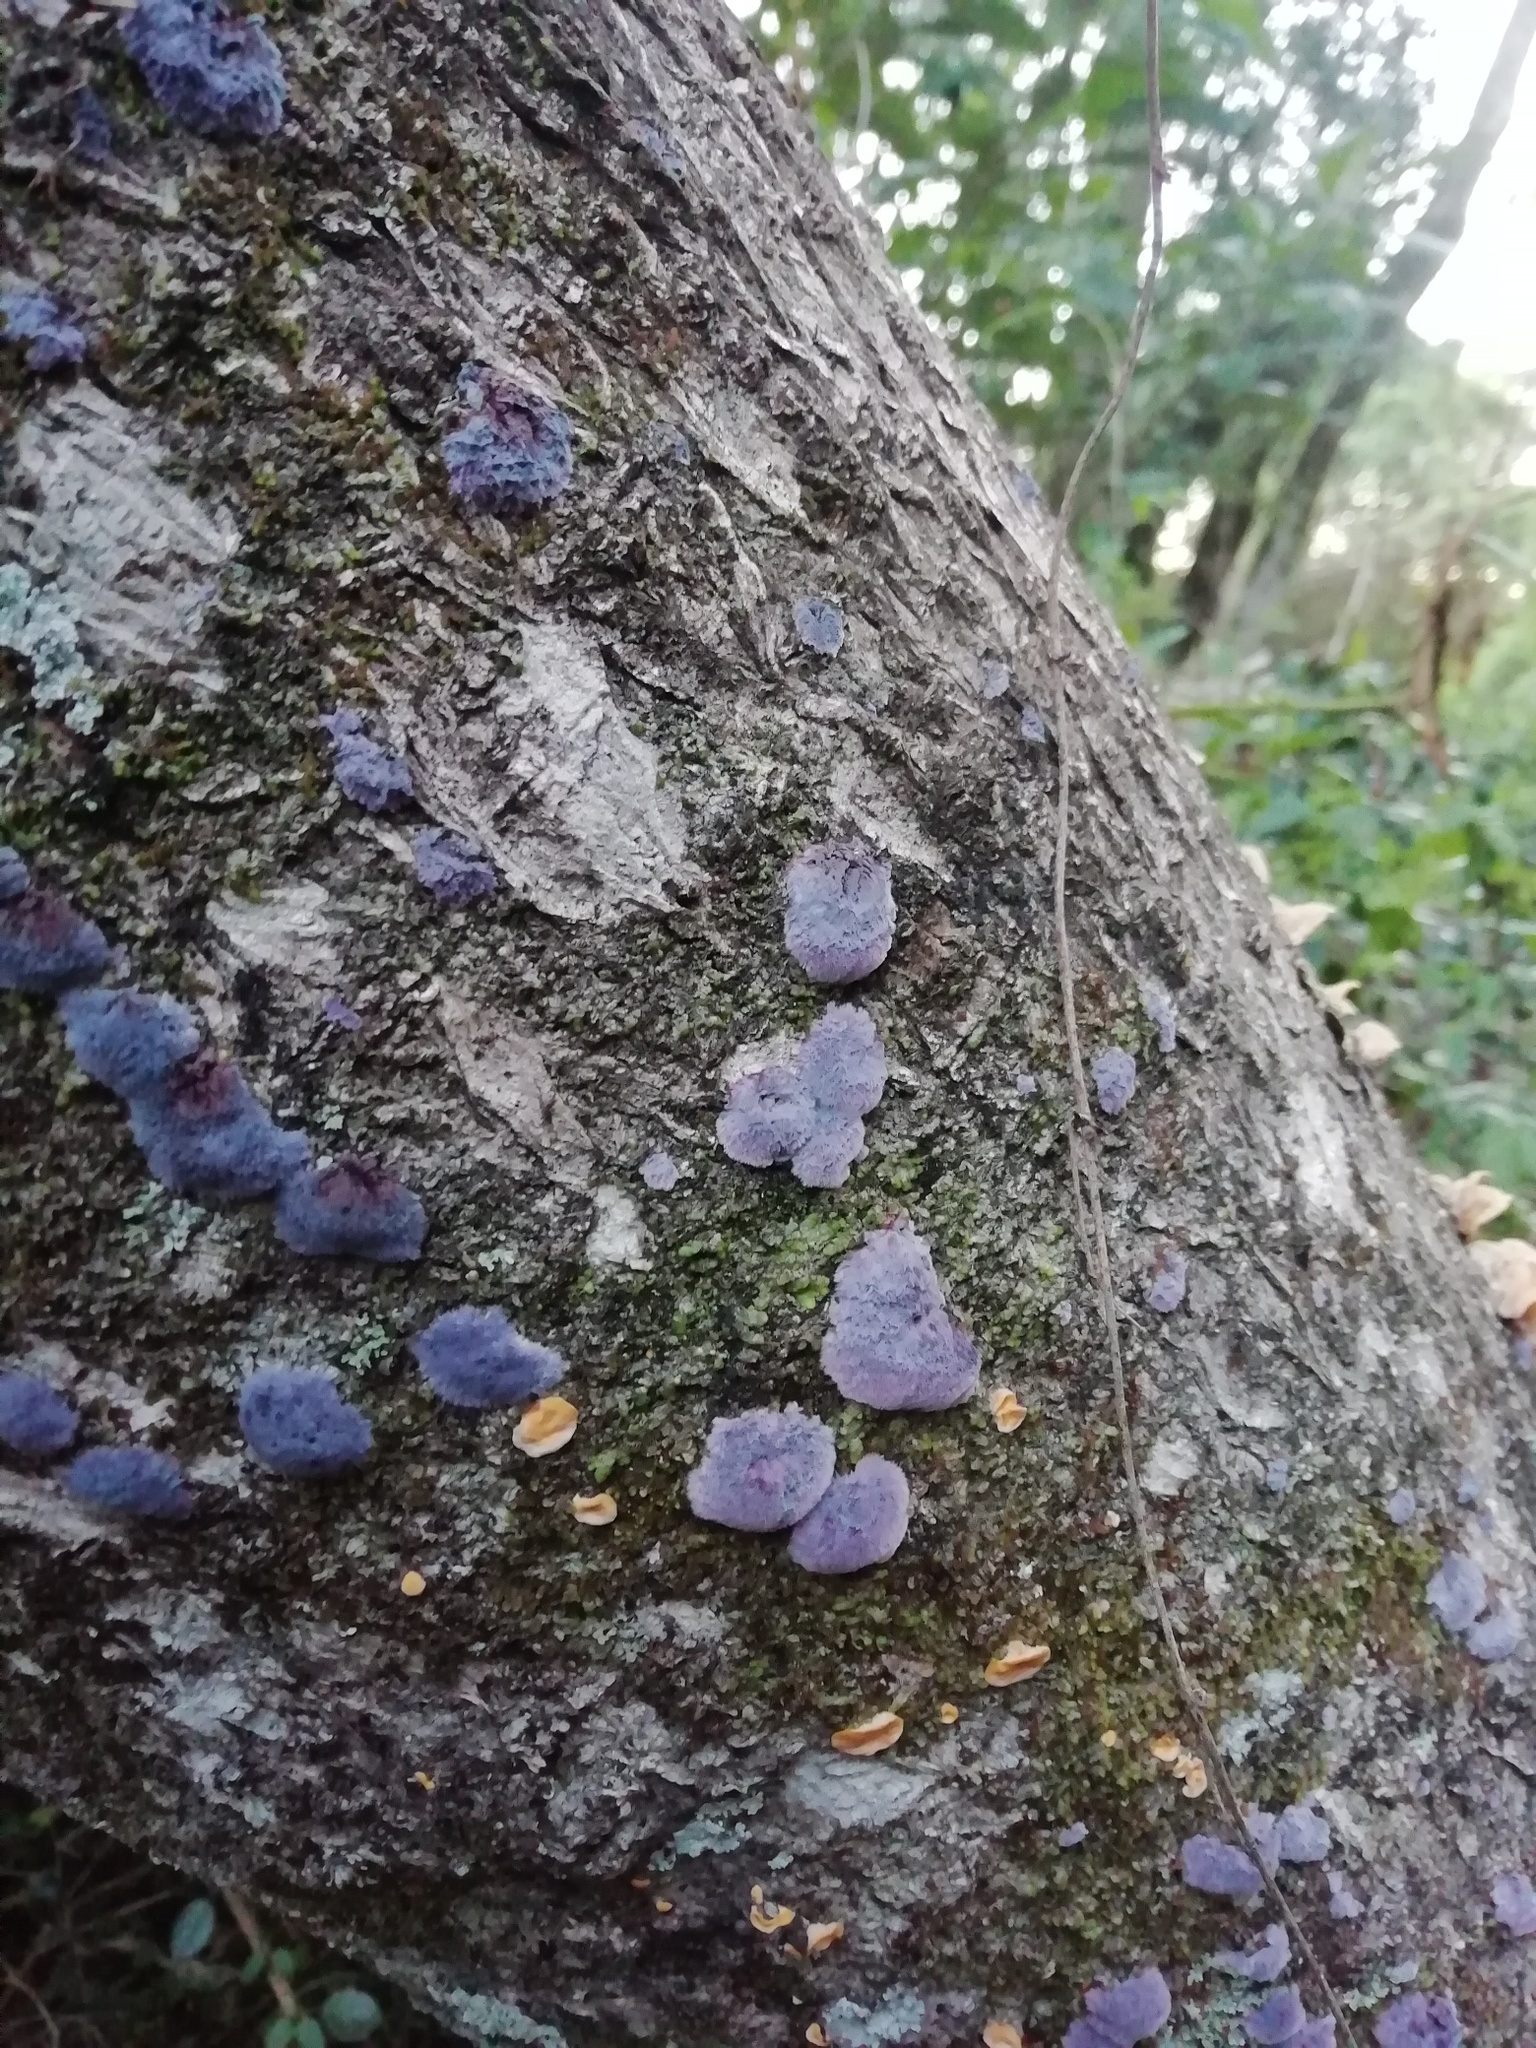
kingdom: Fungi
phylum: Basidiomycota
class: Agaricomycetes
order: Corticiales
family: Punctulariaceae
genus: Punctularia
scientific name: Punctularia atropurpurascens
